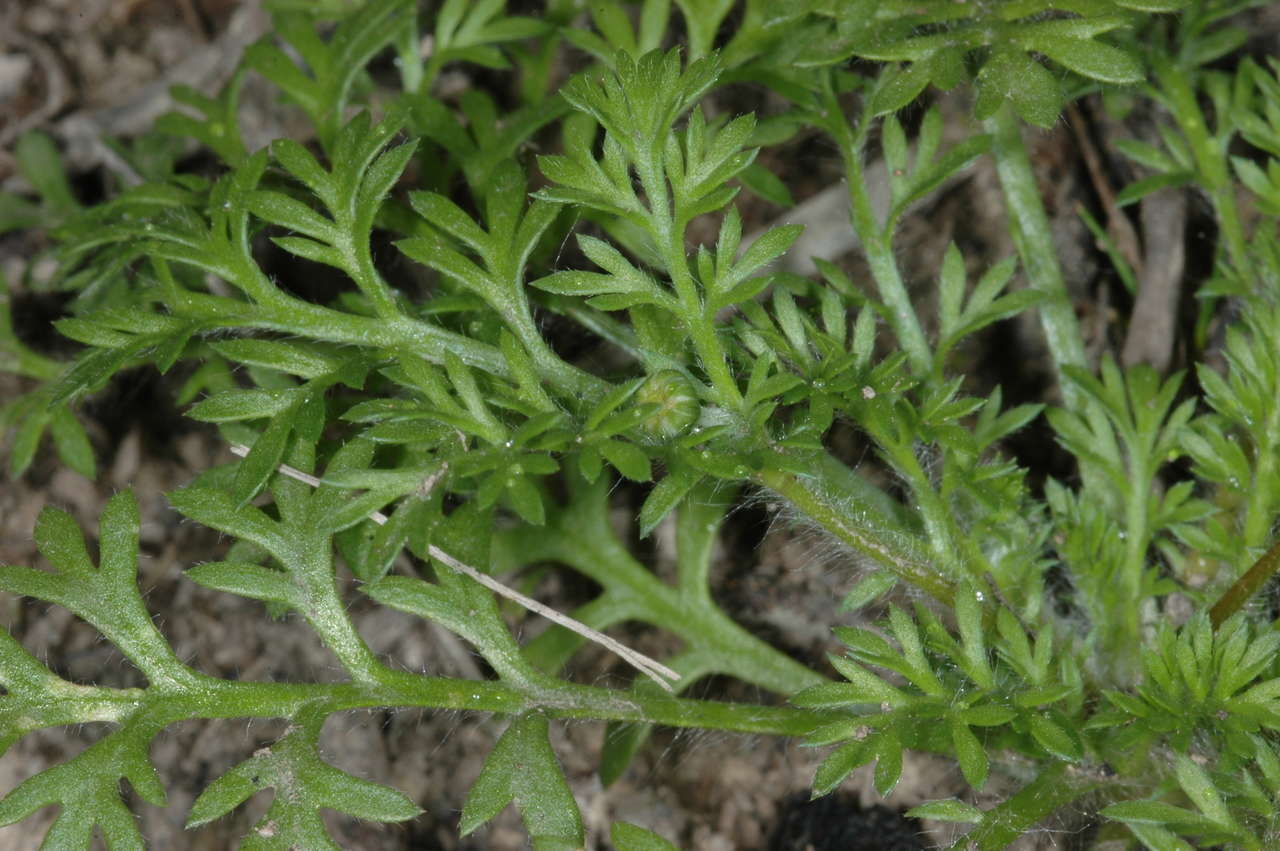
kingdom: Plantae
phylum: Tracheophyta
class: Magnoliopsida
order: Asterales
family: Asteraceae
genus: Cotula
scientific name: Cotula australis
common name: Australian waterbuttons
